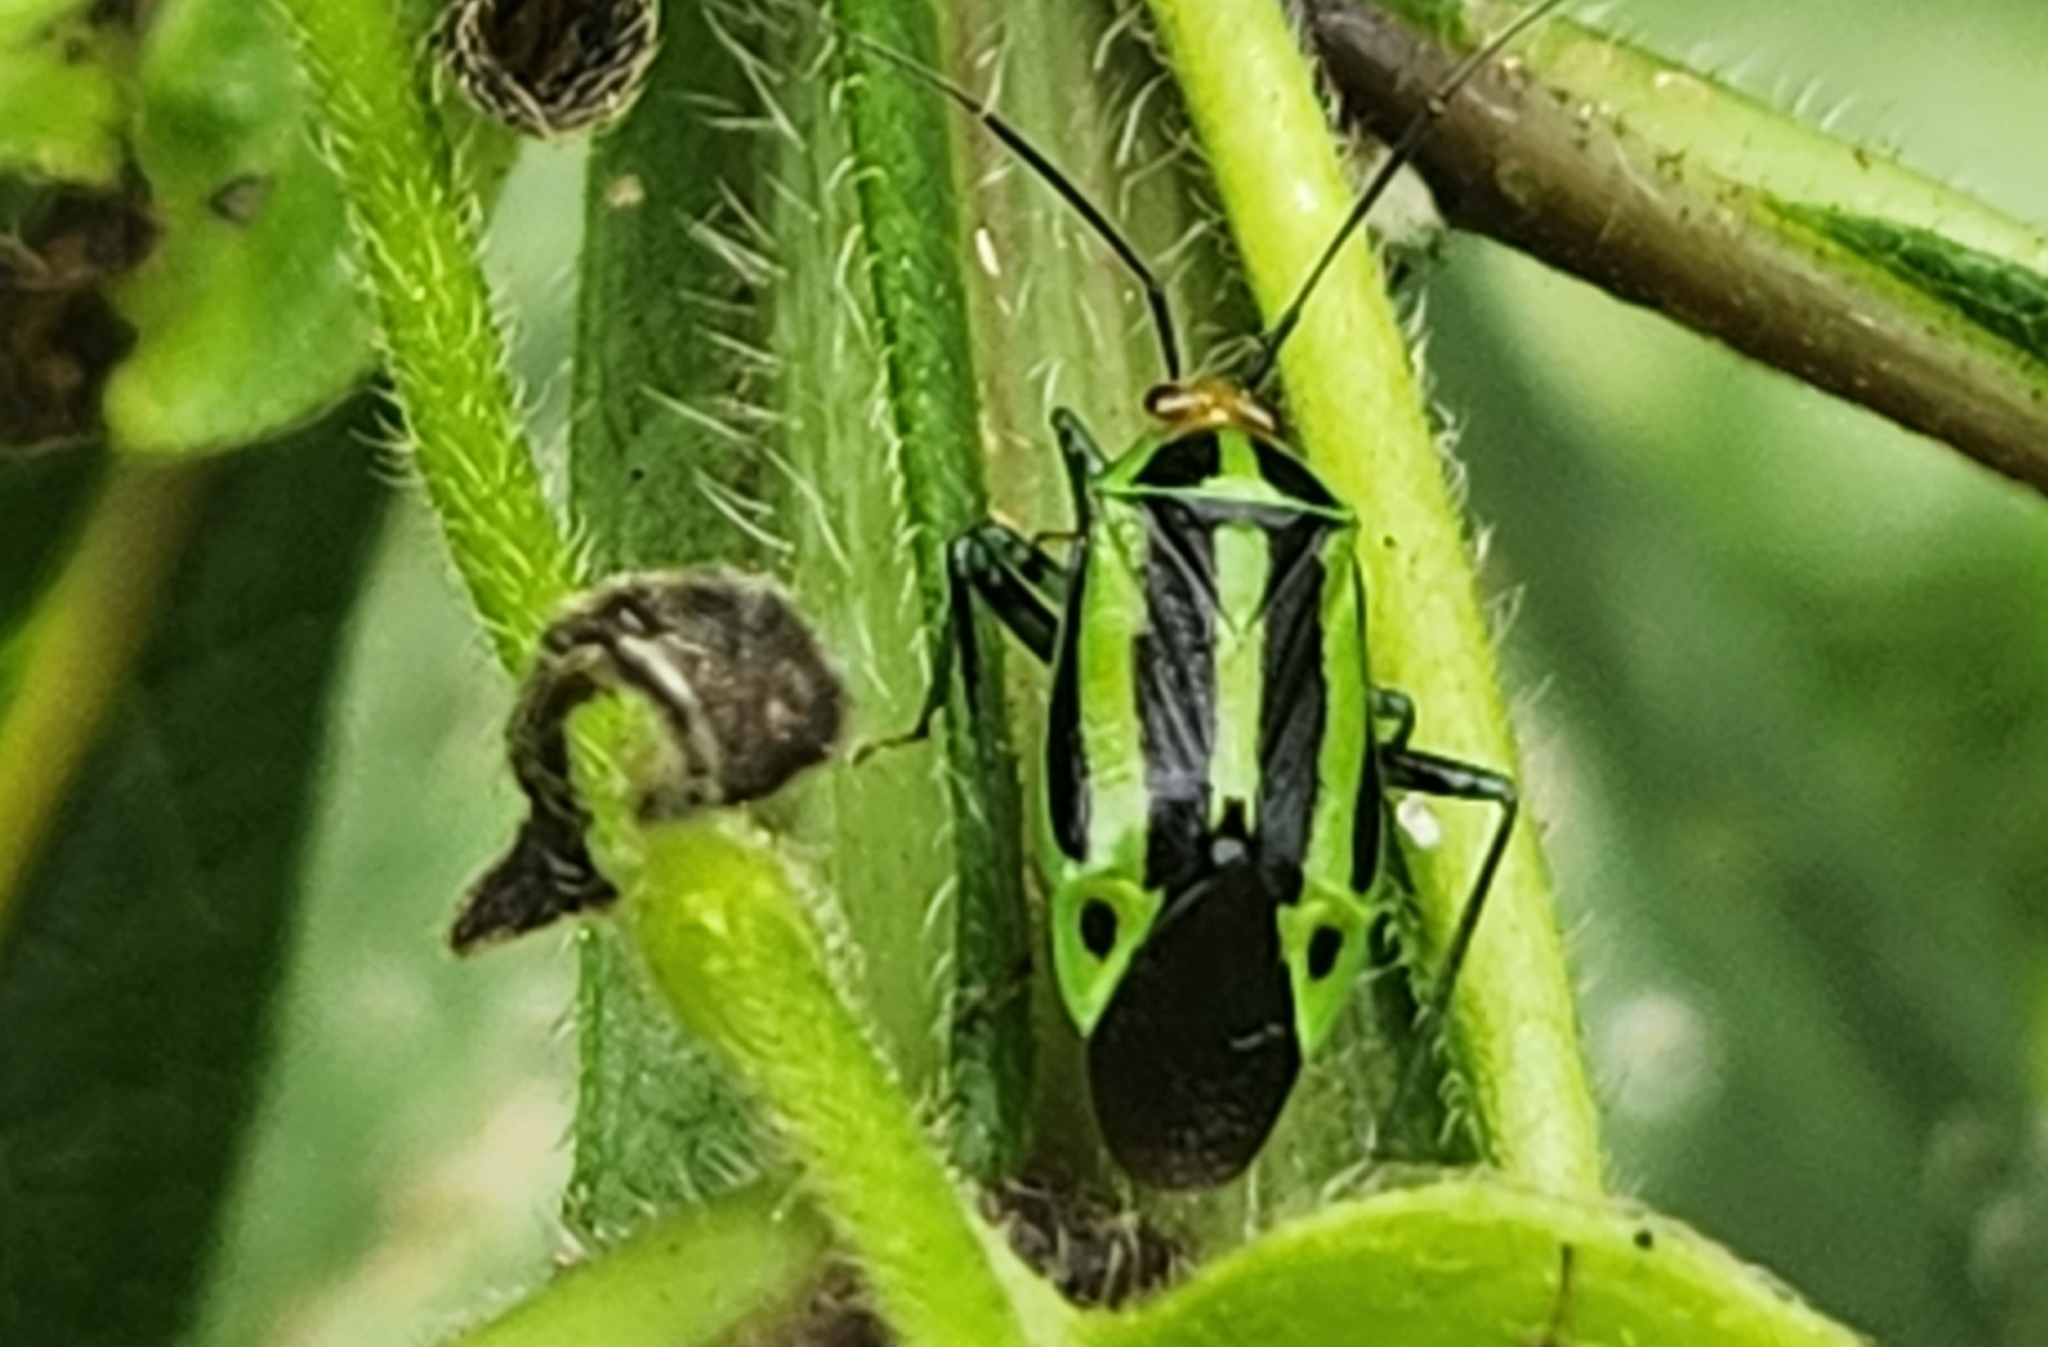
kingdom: Animalia
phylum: Arthropoda
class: Insecta
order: Hemiptera
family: Miridae
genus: Poecilocapsus
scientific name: Poecilocapsus lineatus
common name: Four-lined plant bug
